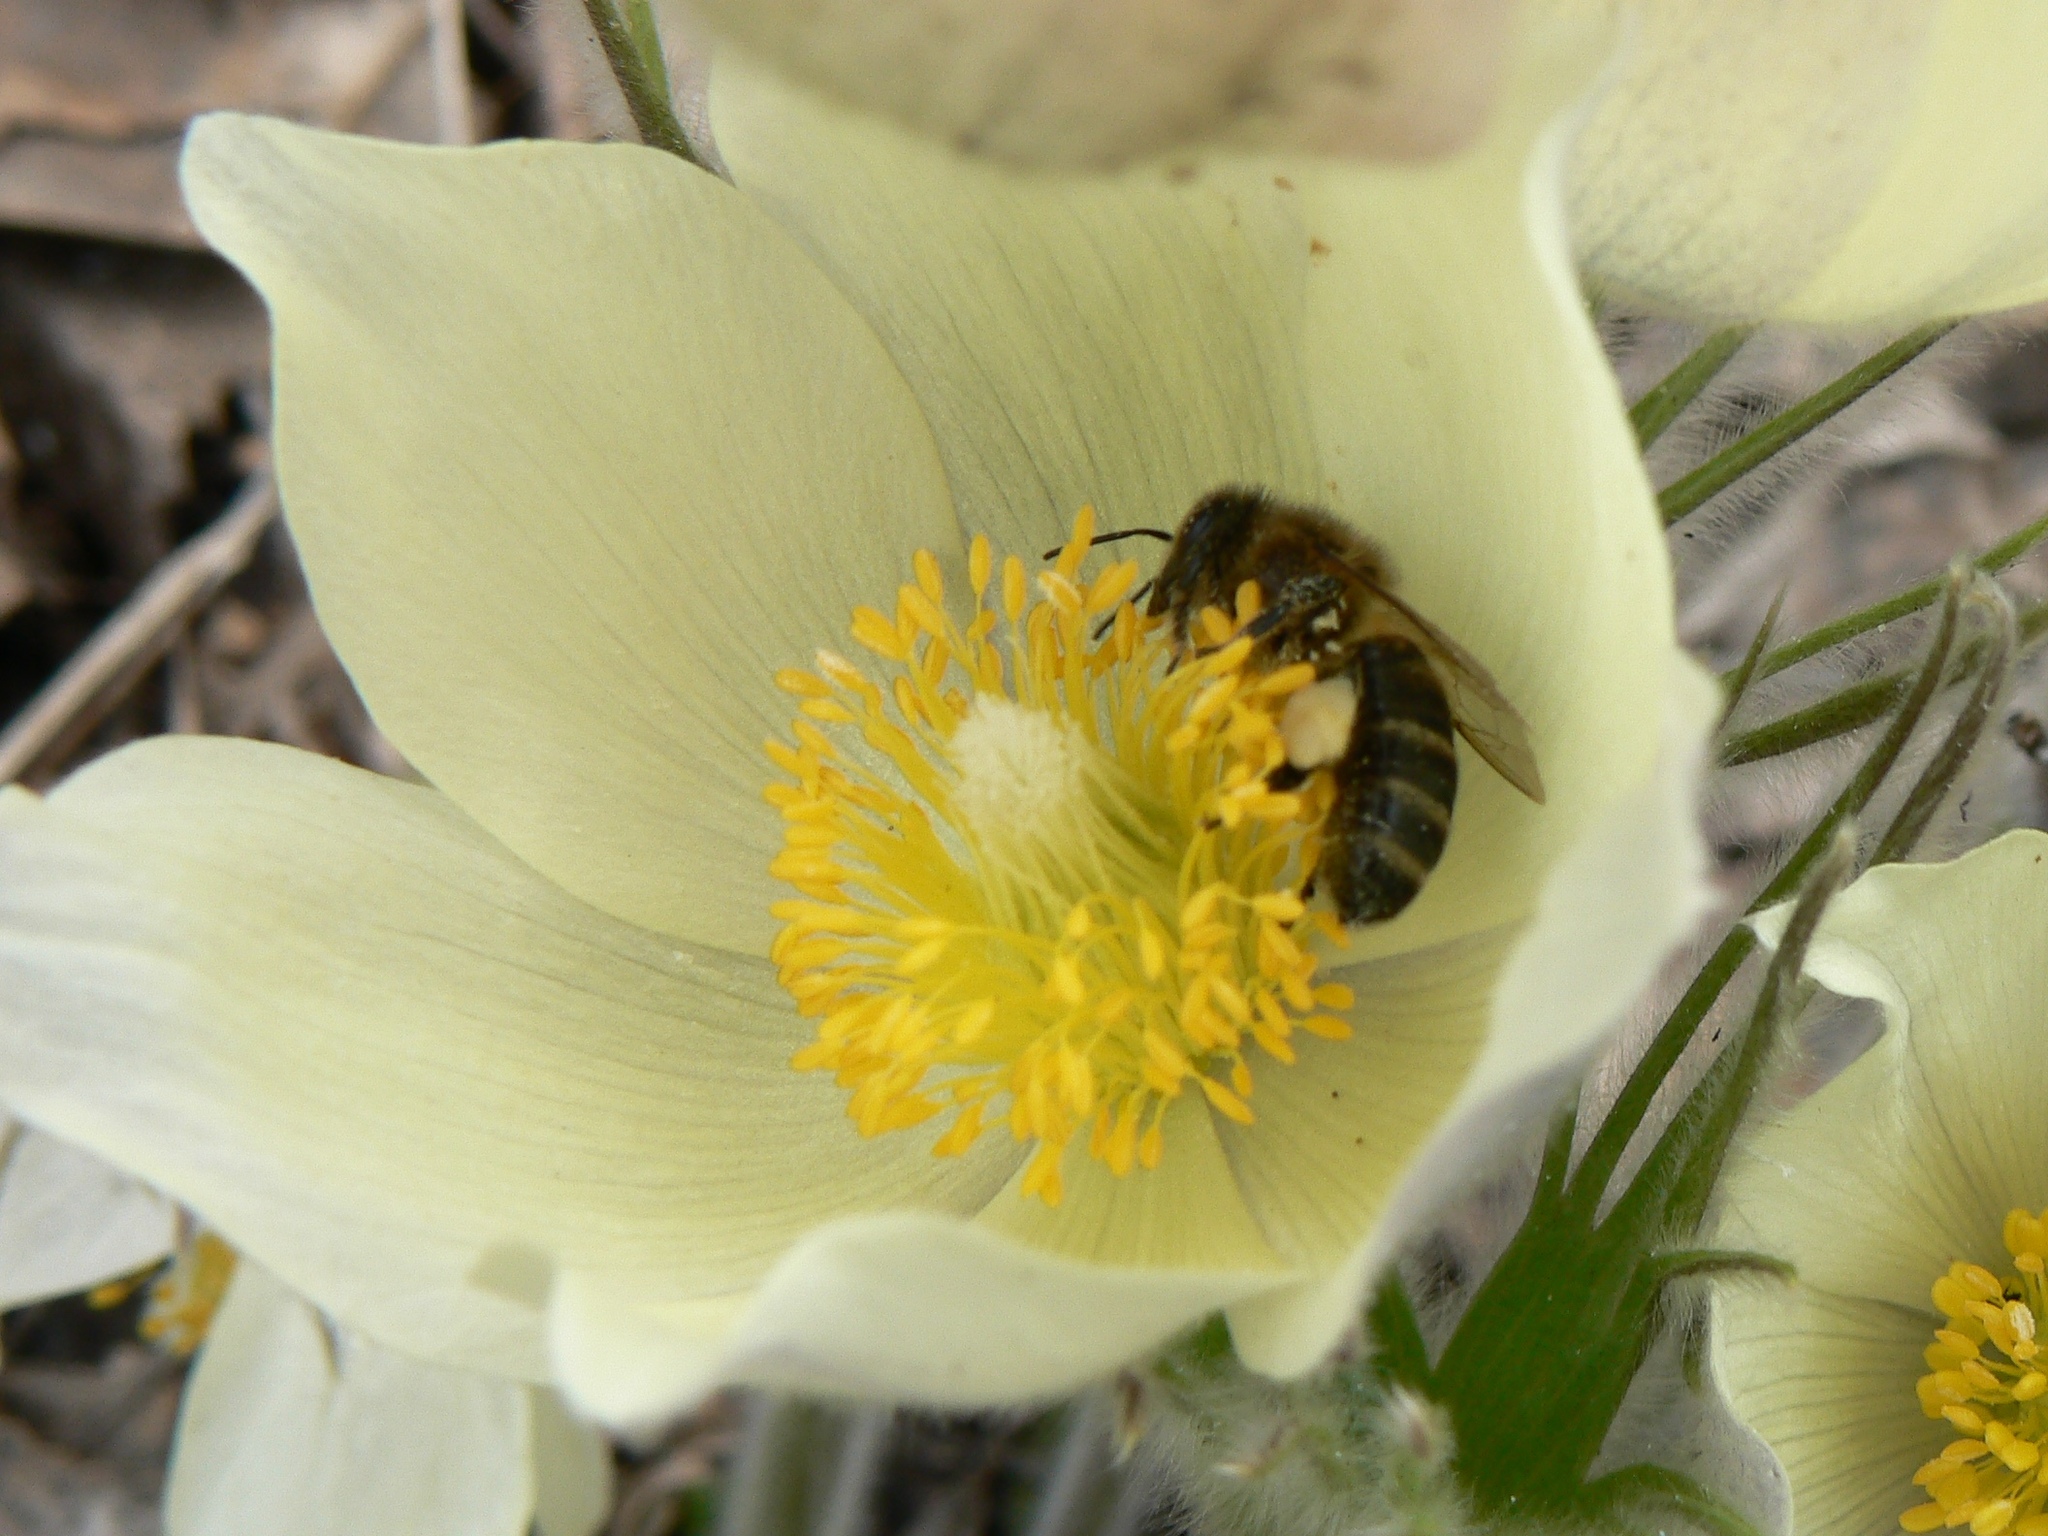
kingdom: Animalia
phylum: Arthropoda
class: Insecta
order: Hymenoptera
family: Apidae
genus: Apis
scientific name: Apis mellifera
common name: Honey bee
